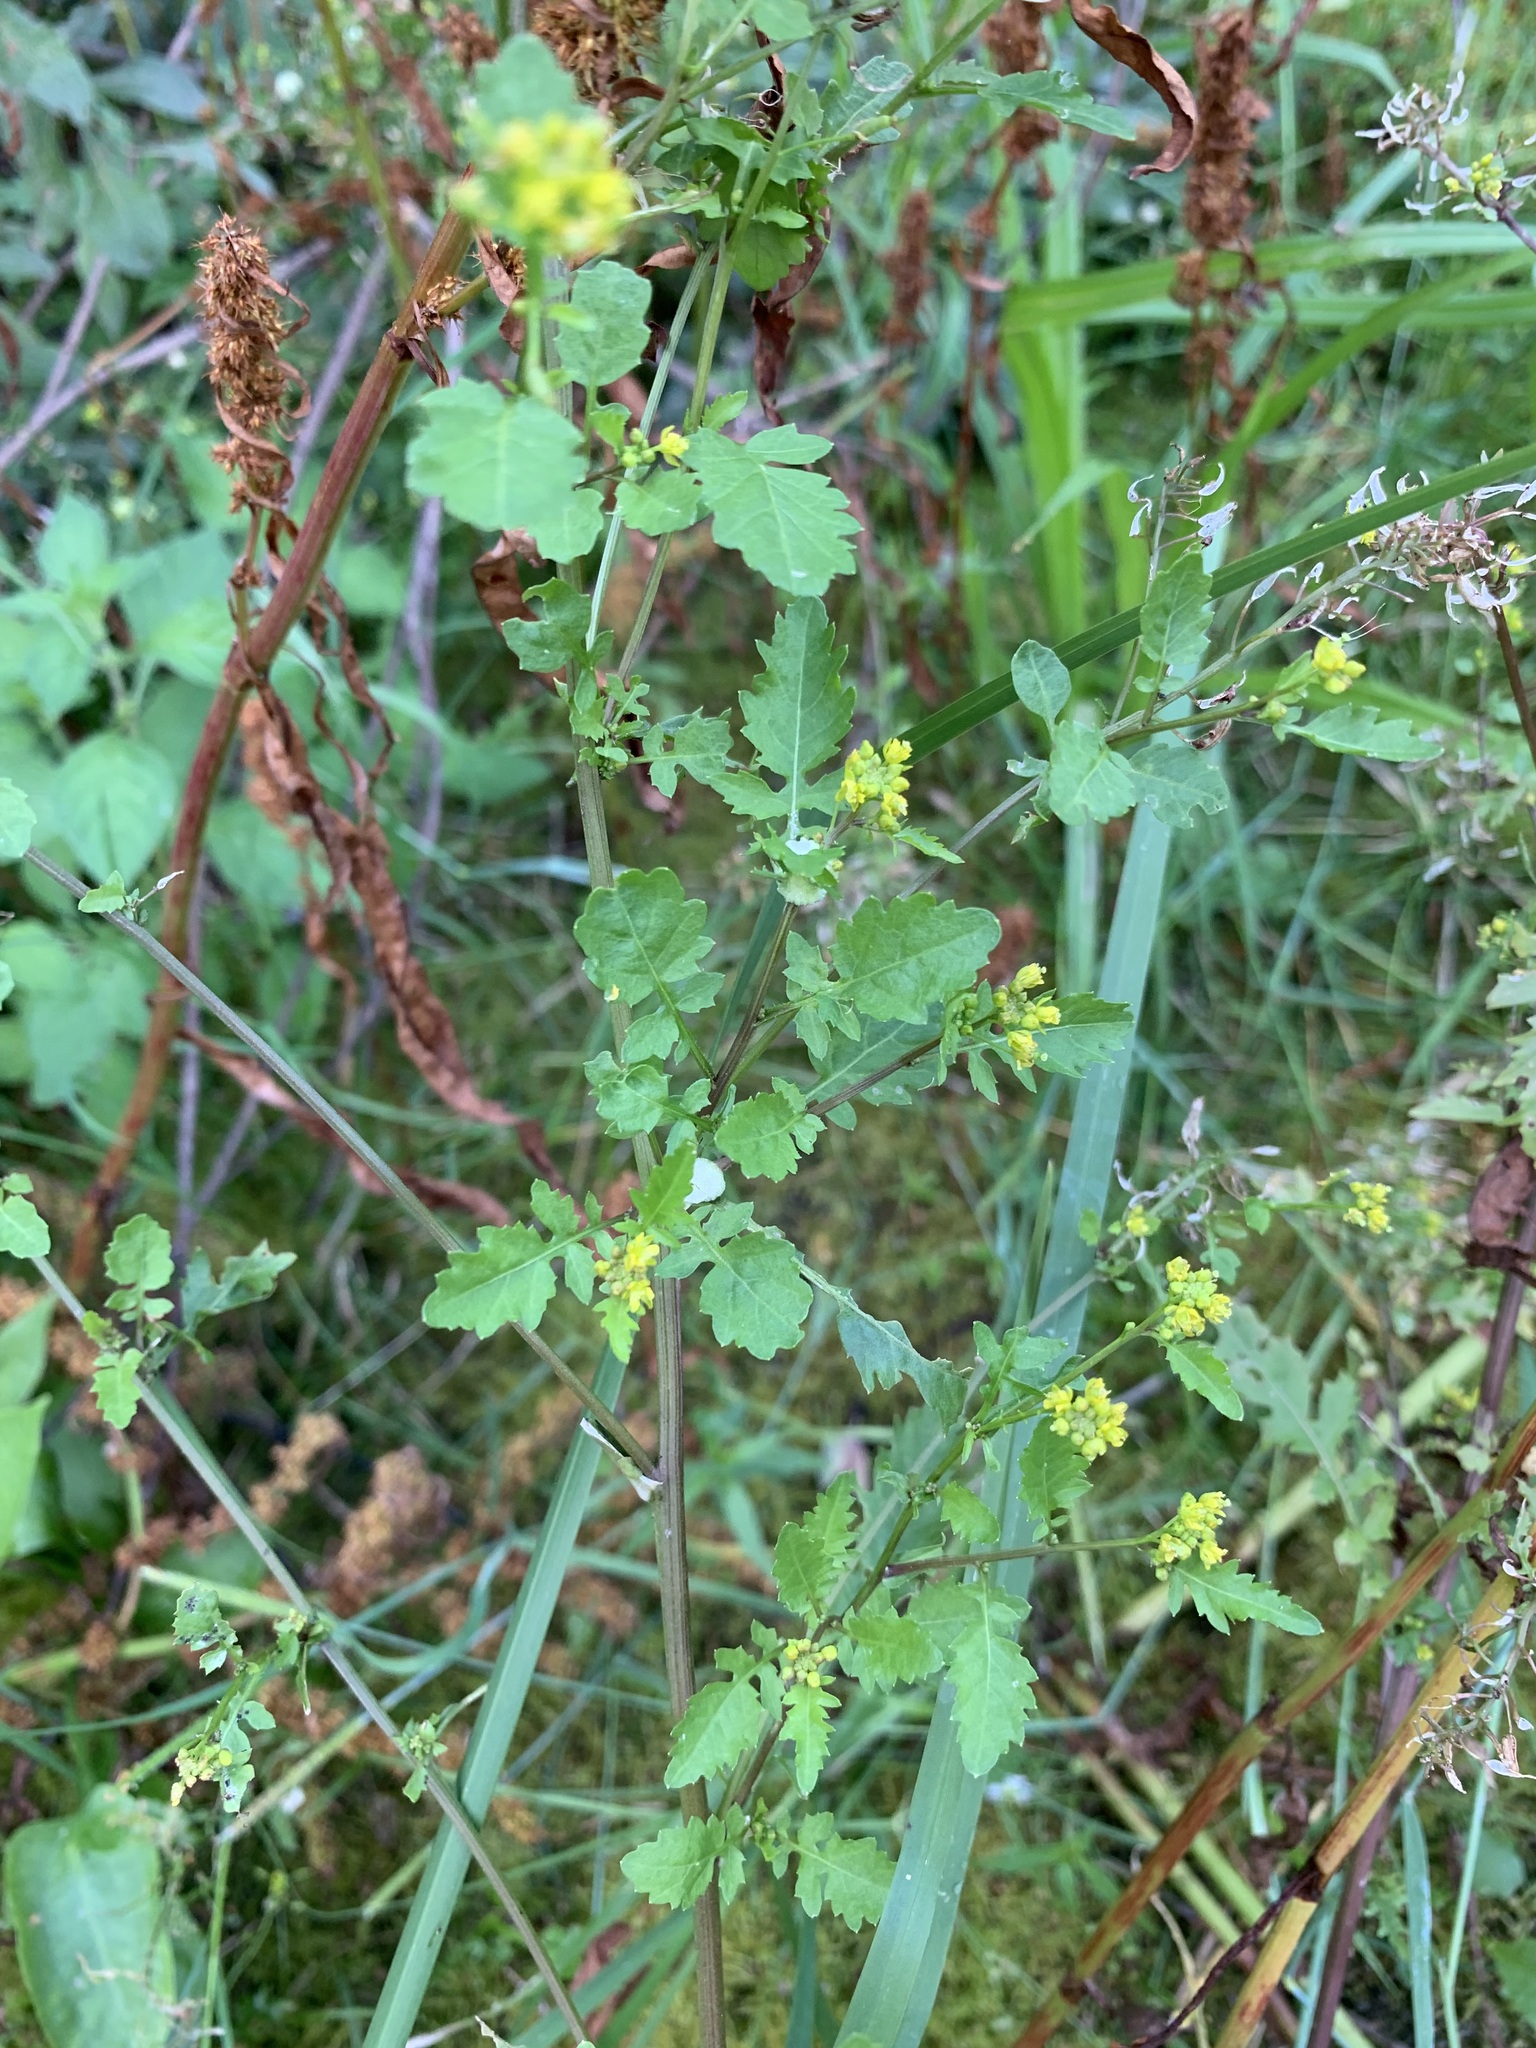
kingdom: Plantae
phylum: Tracheophyta
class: Magnoliopsida
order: Brassicales
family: Brassicaceae
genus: Rorippa
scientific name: Rorippa palustris
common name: Marsh yellow-cress
